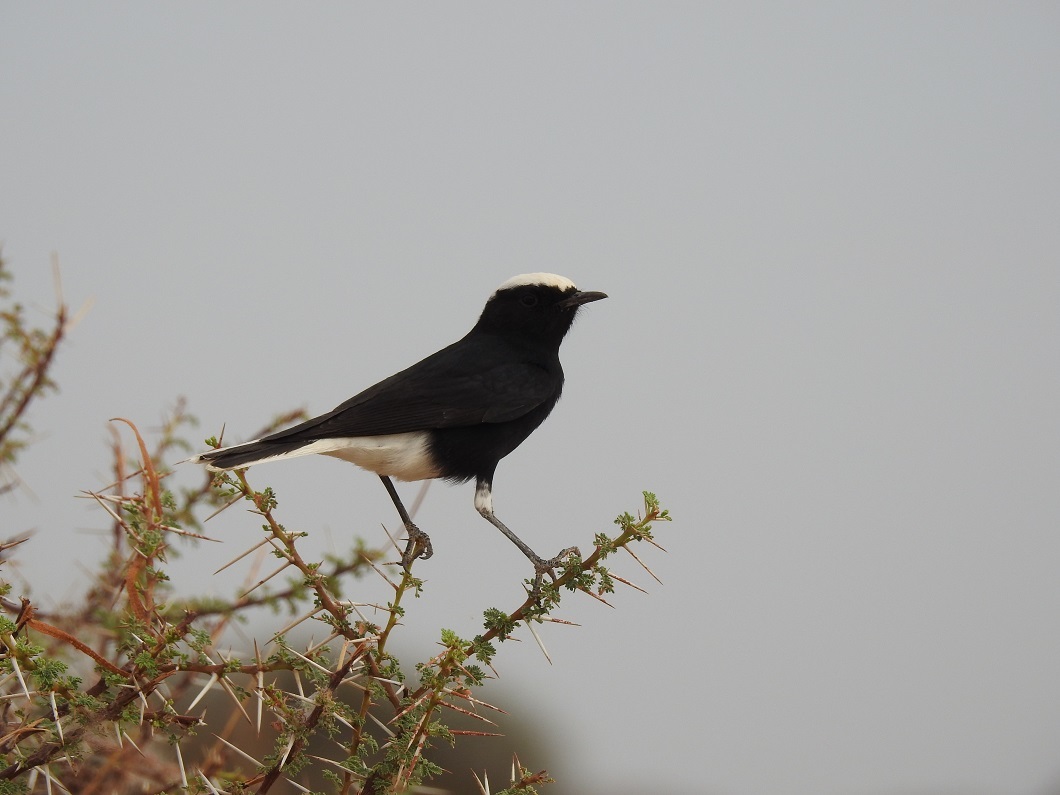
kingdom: Animalia
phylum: Chordata
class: Aves
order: Passeriformes
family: Muscicapidae
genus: Oenanthe
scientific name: Oenanthe leucopyga
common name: White-crowned wheatear
